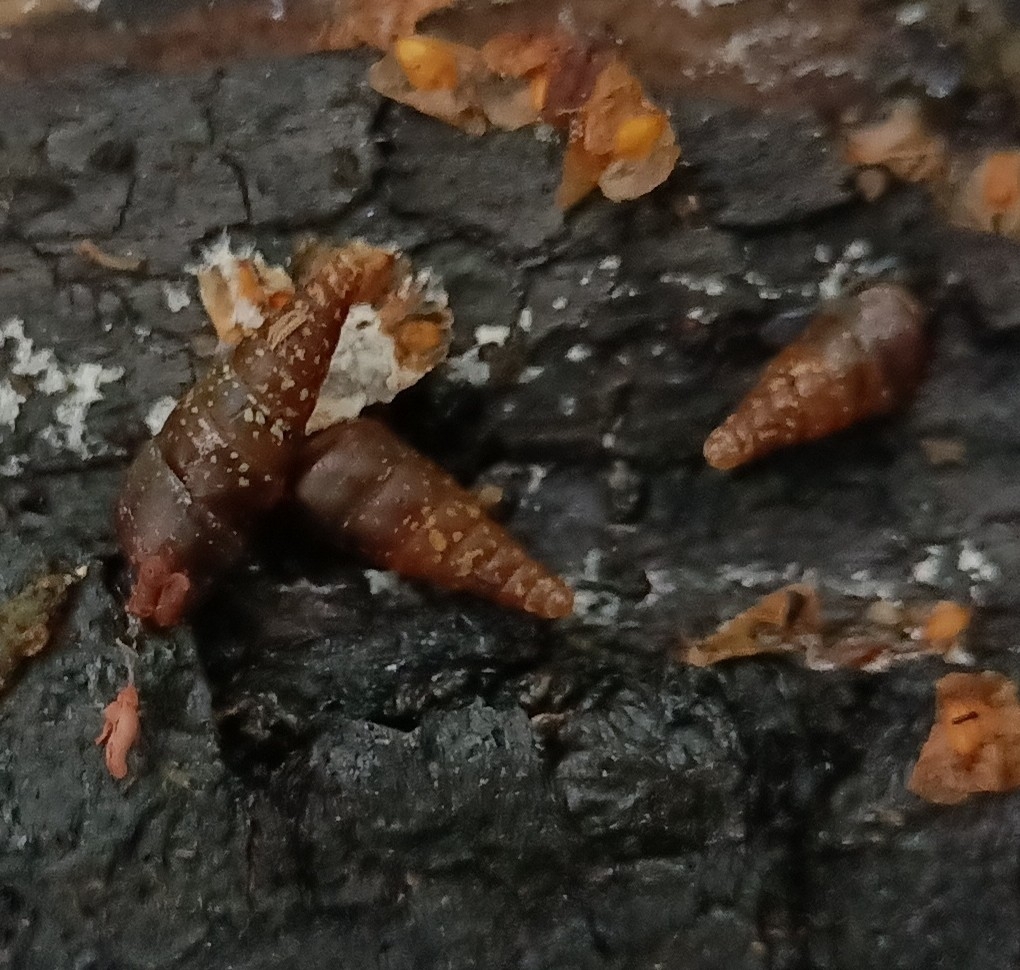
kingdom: Animalia
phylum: Mollusca
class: Gastropoda
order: Stylommatophora
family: Clausiliidae
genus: Cochlodina
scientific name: Cochlodina laminata
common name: Plaited door snail
